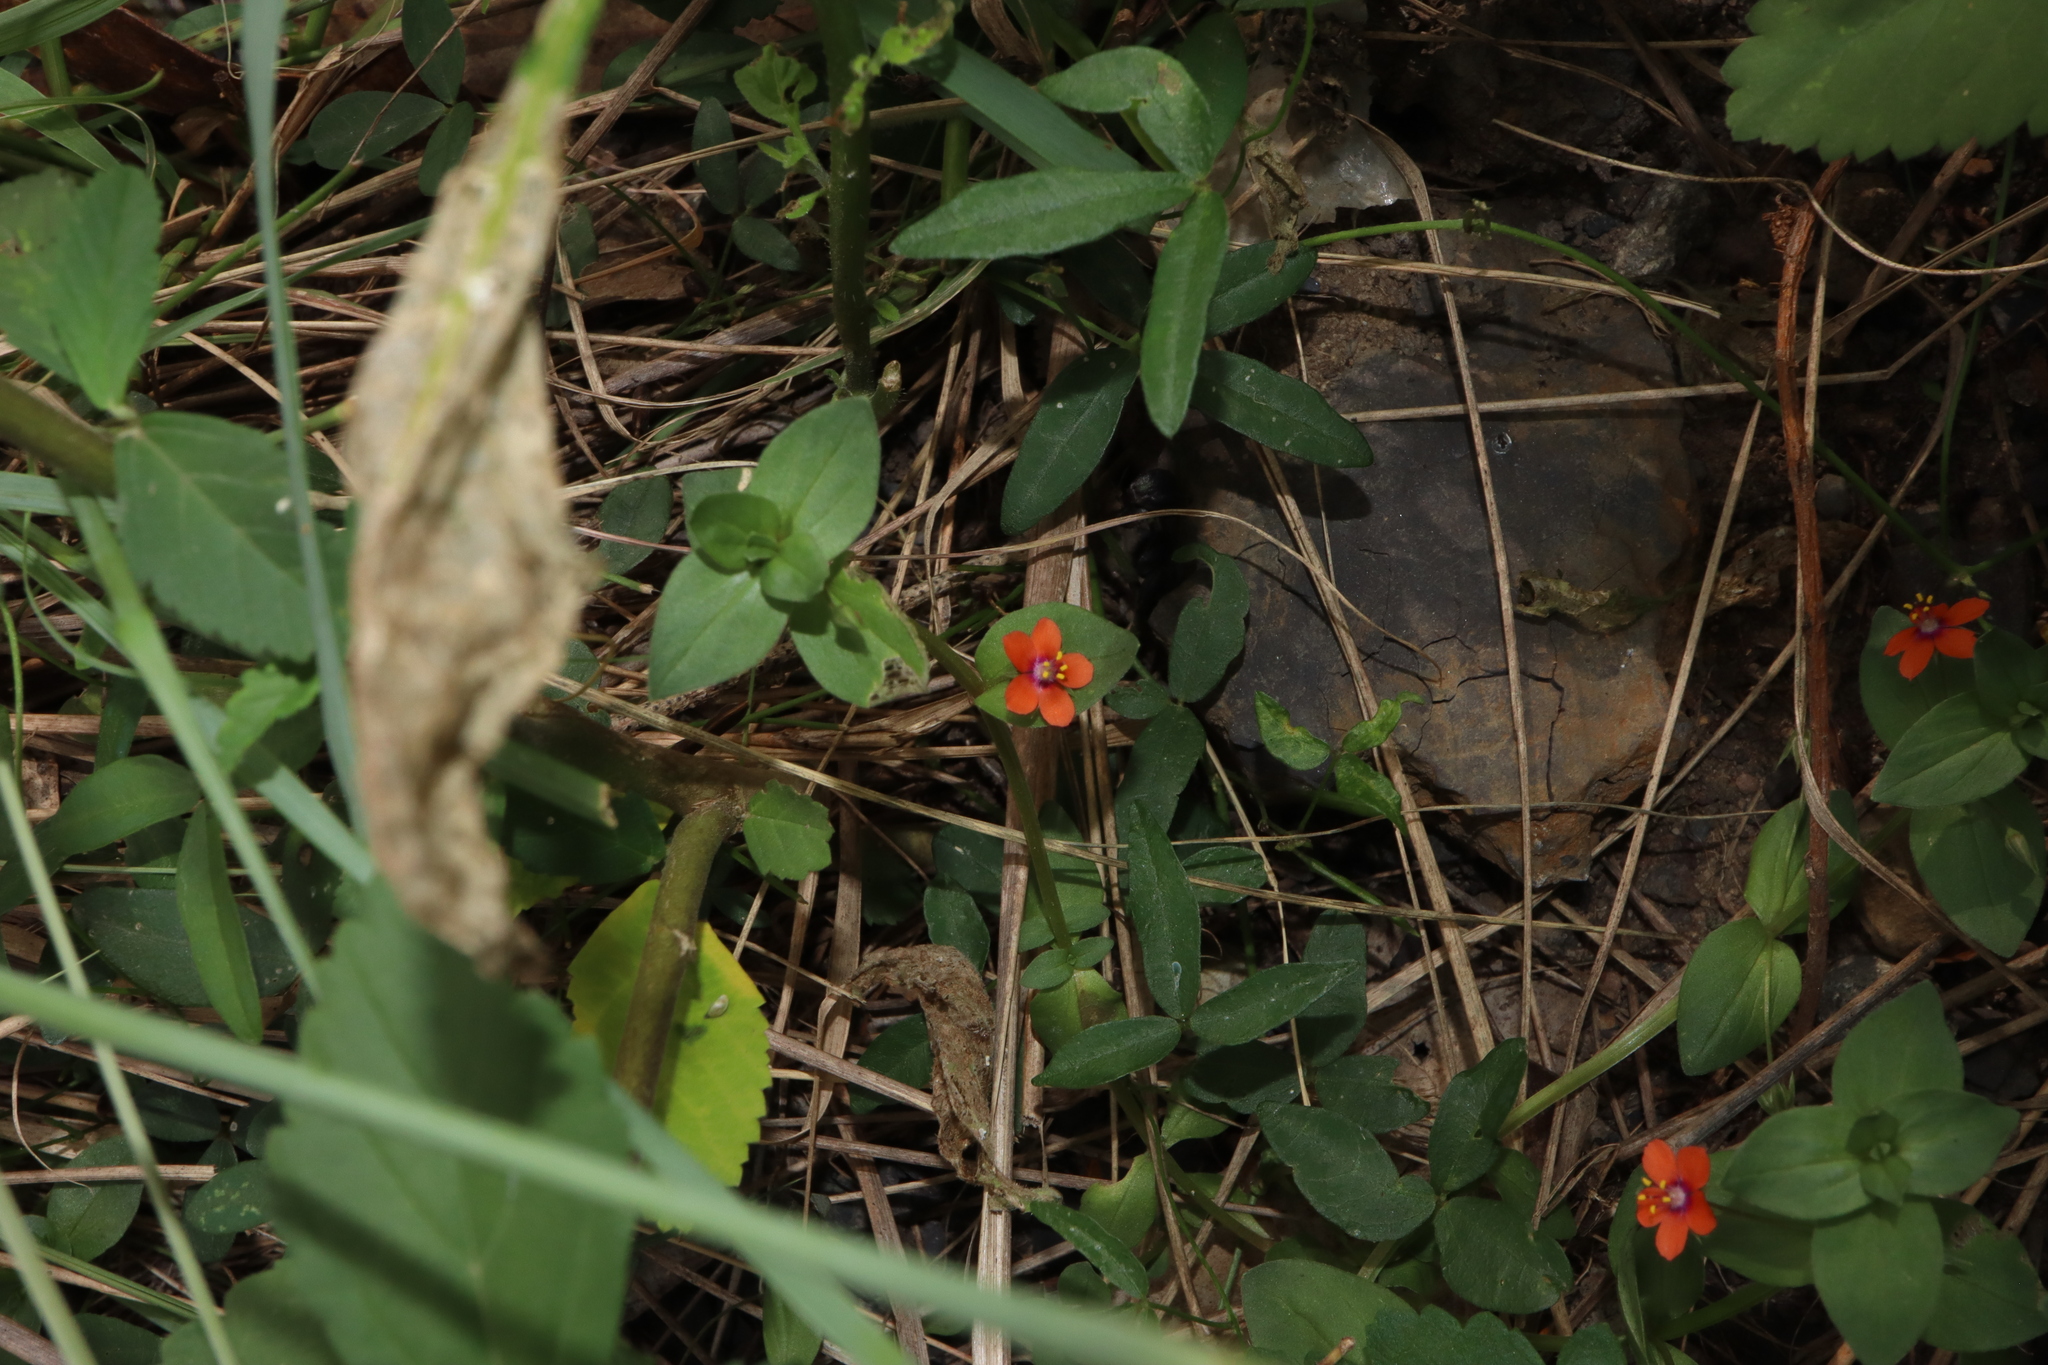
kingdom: Plantae
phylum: Tracheophyta
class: Magnoliopsida
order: Ericales
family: Primulaceae
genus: Lysimachia
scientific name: Lysimachia arvensis
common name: Scarlet pimpernel
